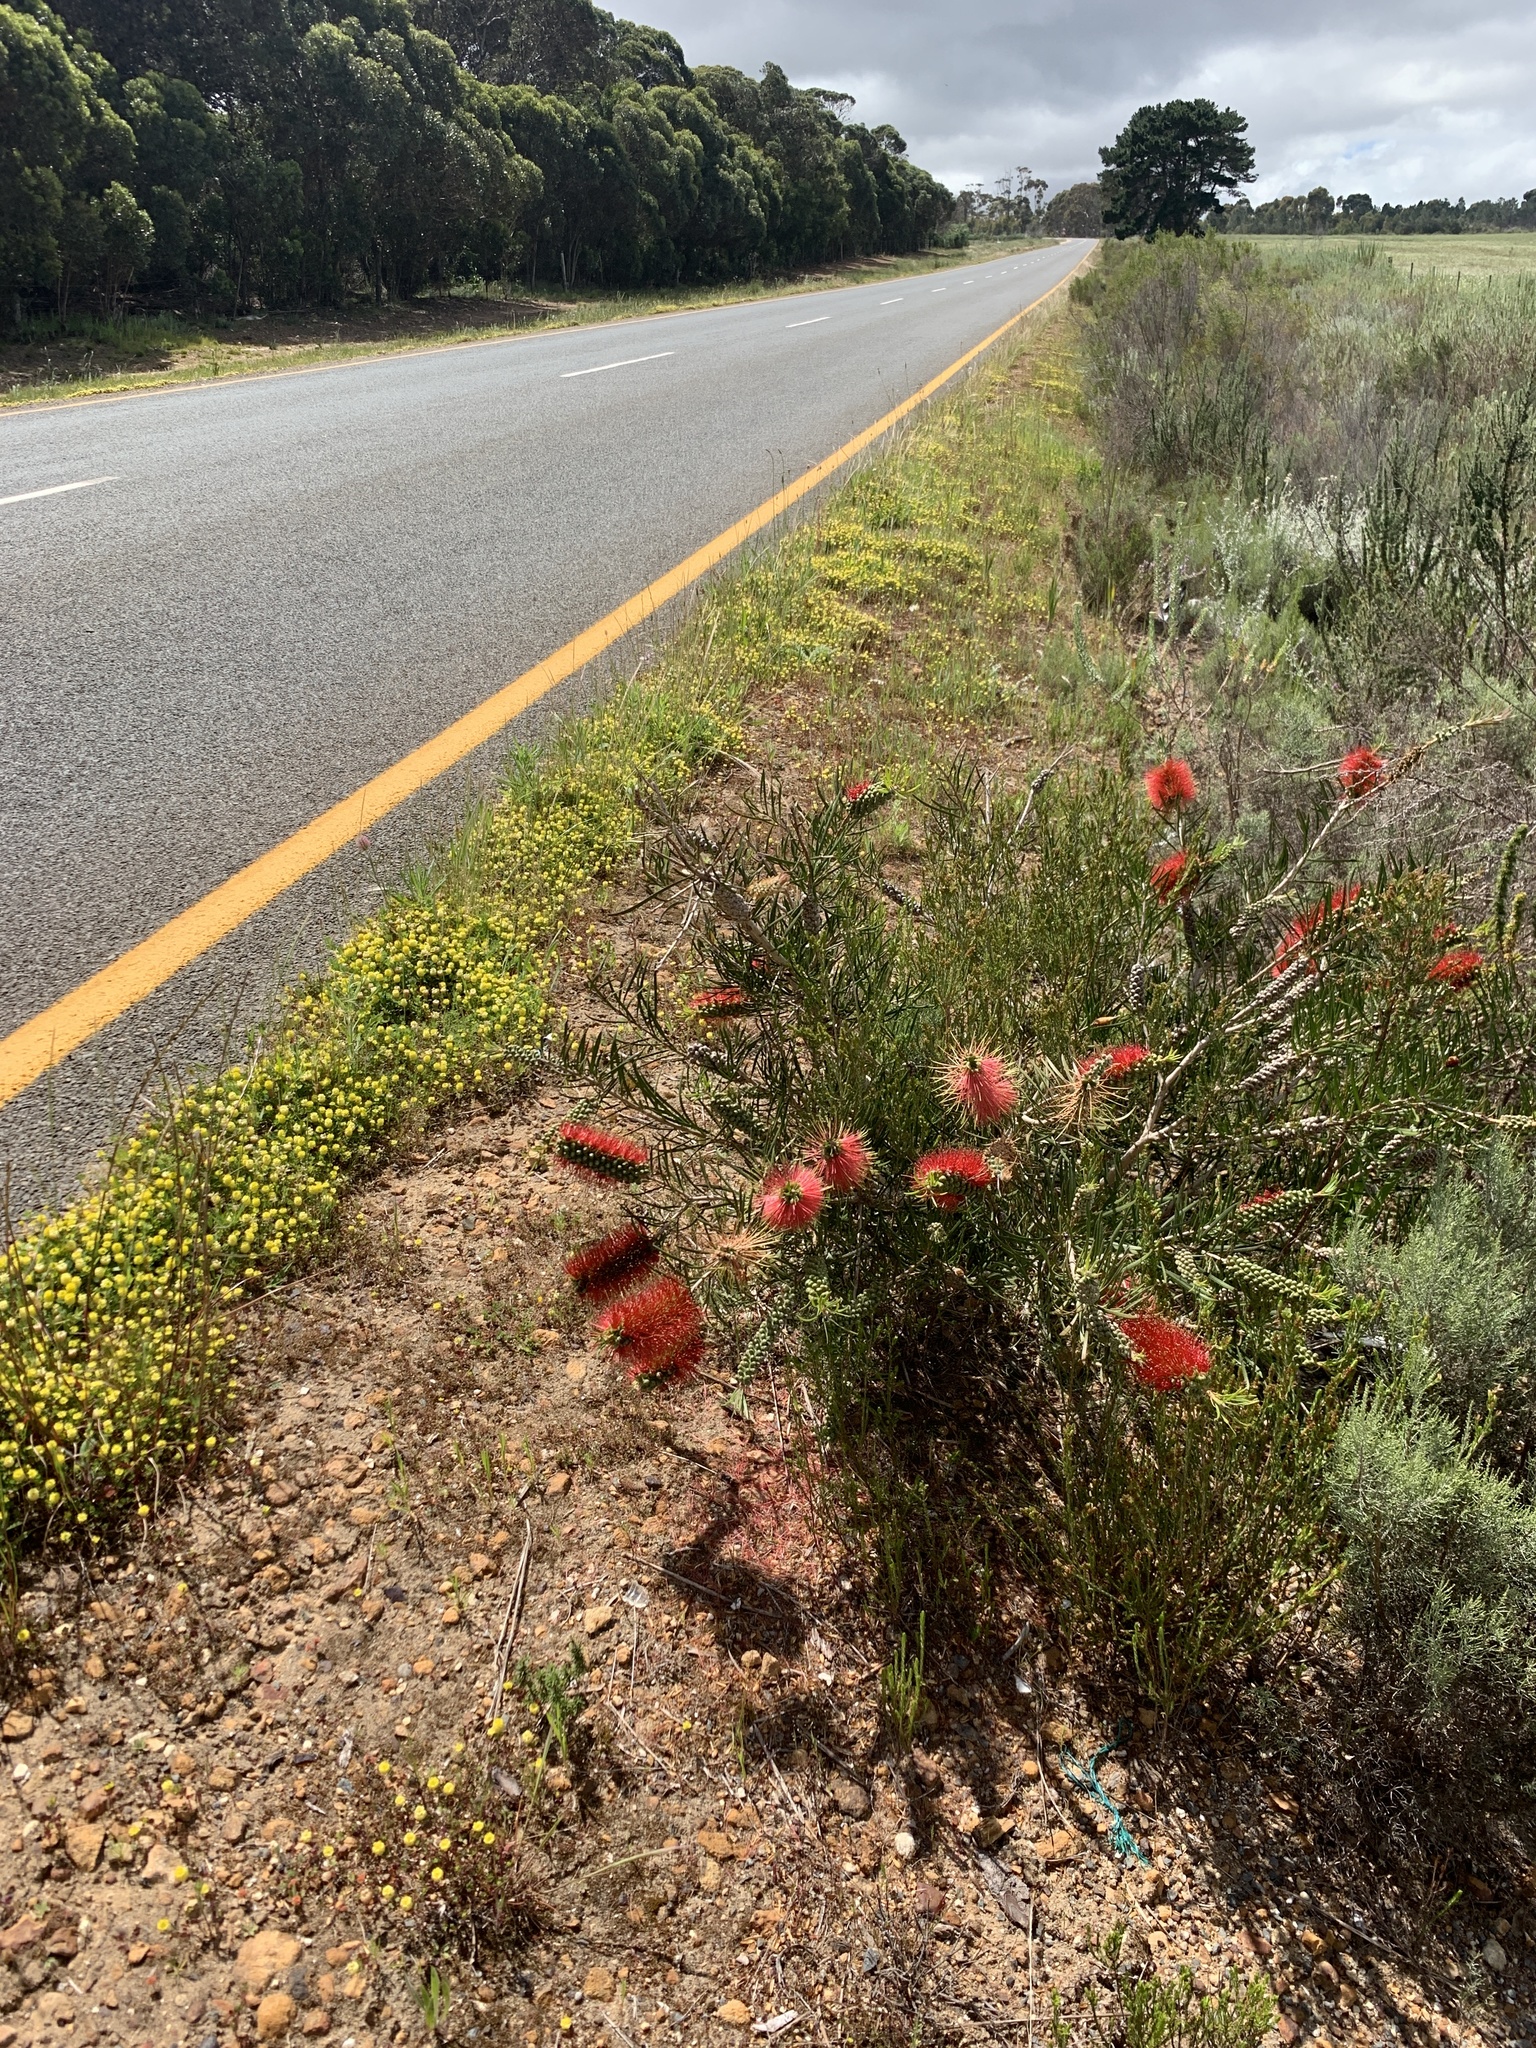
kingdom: Plantae
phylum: Tracheophyta
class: Magnoliopsida
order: Myrtales
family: Myrtaceae
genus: Callistemon
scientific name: Callistemon linearis
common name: Narrow-leaf bottlebrush
